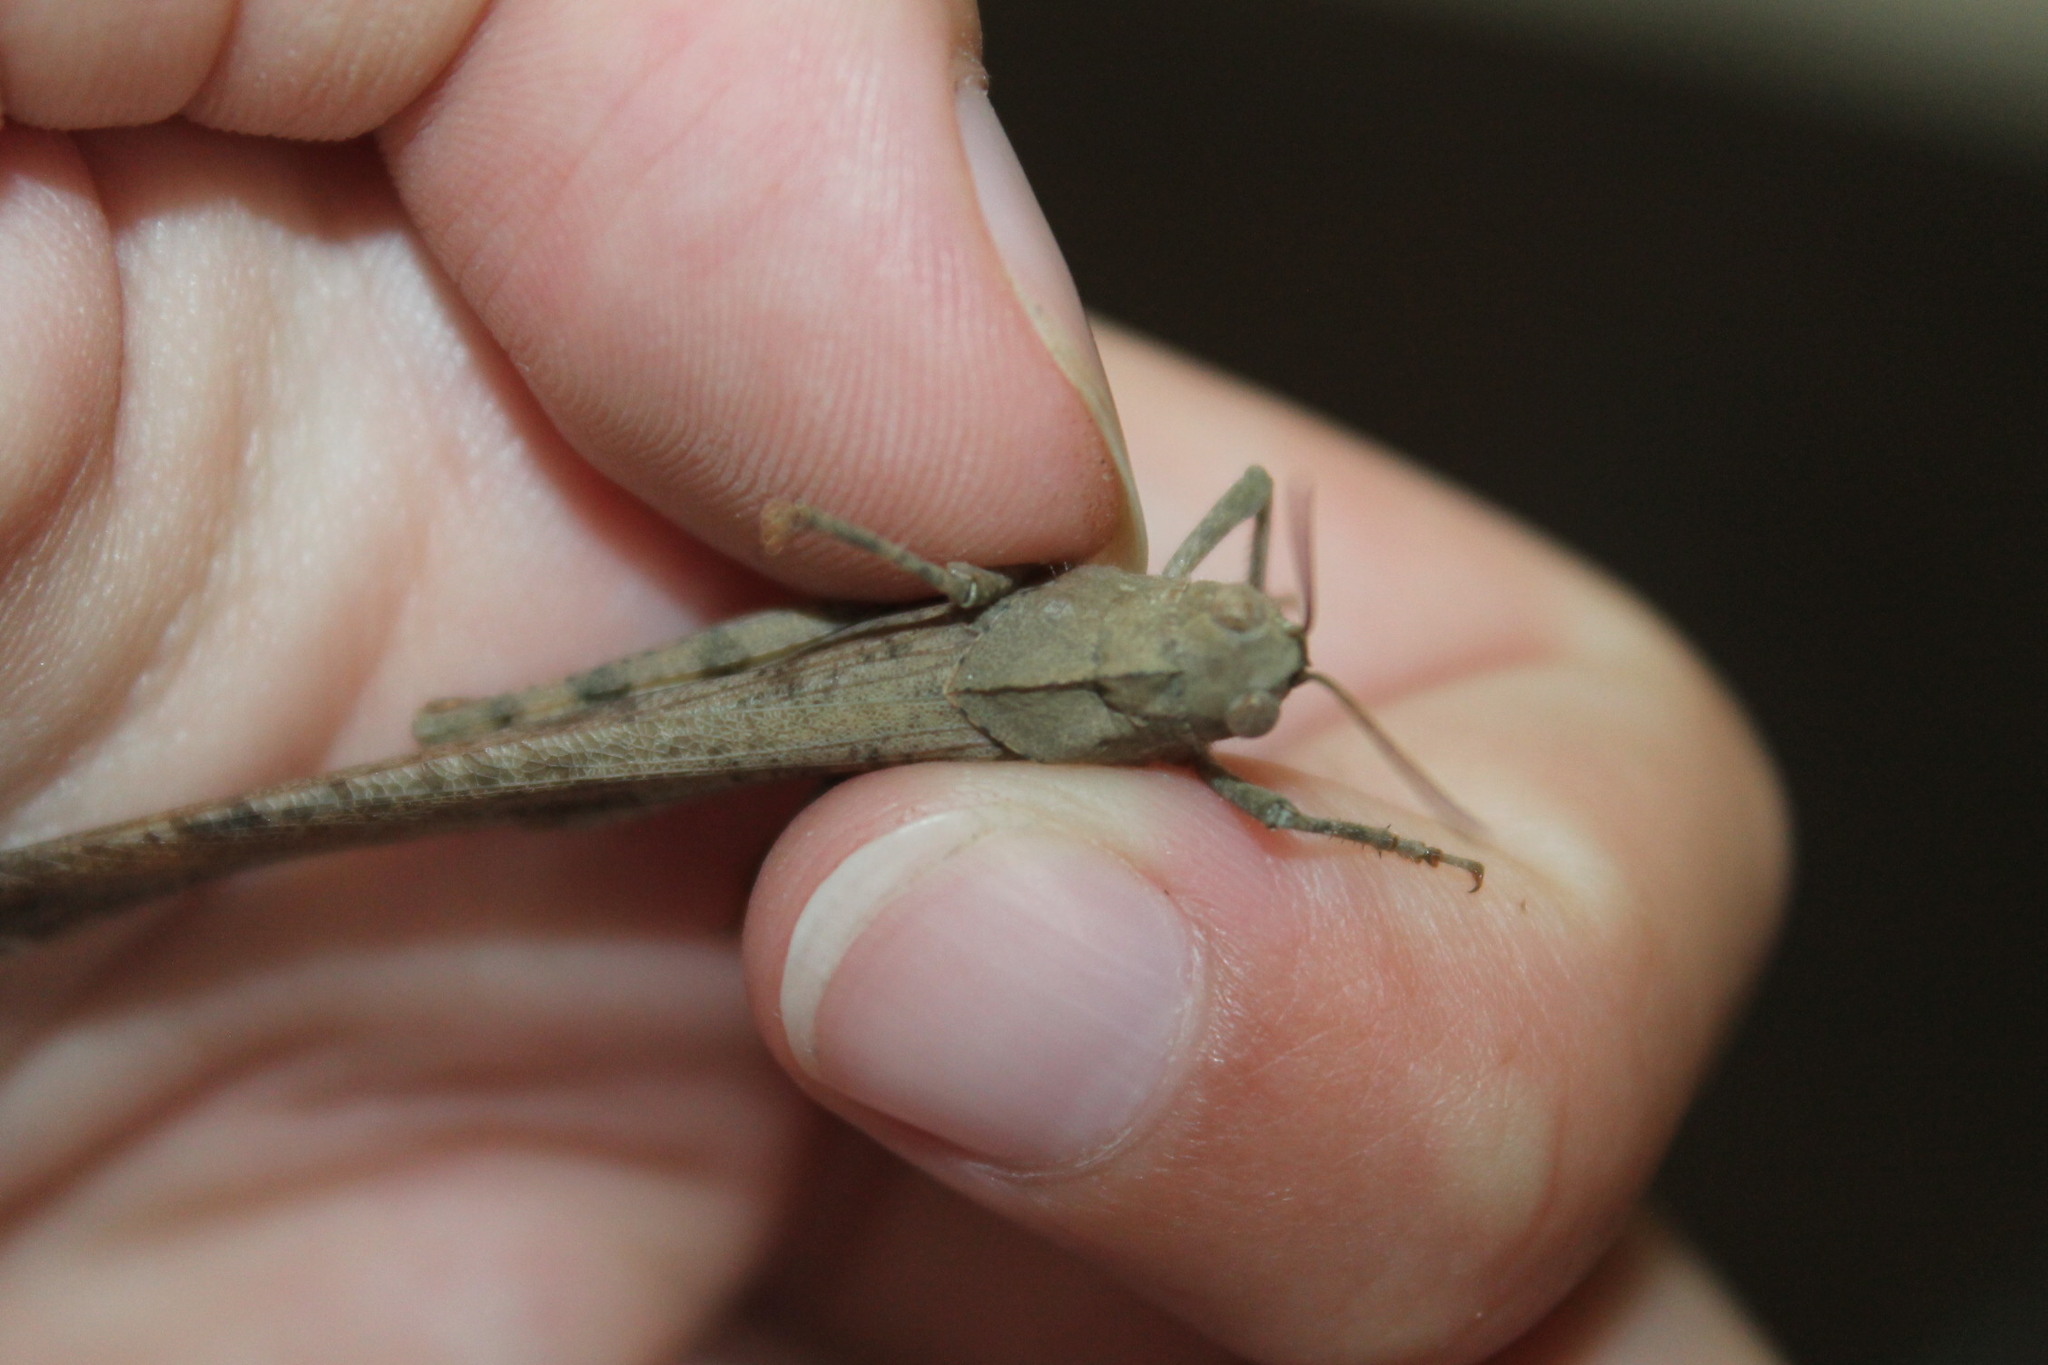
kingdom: Animalia
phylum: Arthropoda
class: Insecta
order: Orthoptera
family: Acrididae
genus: Dissosteira
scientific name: Dissosteira carolina
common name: Carolina grasshopper
